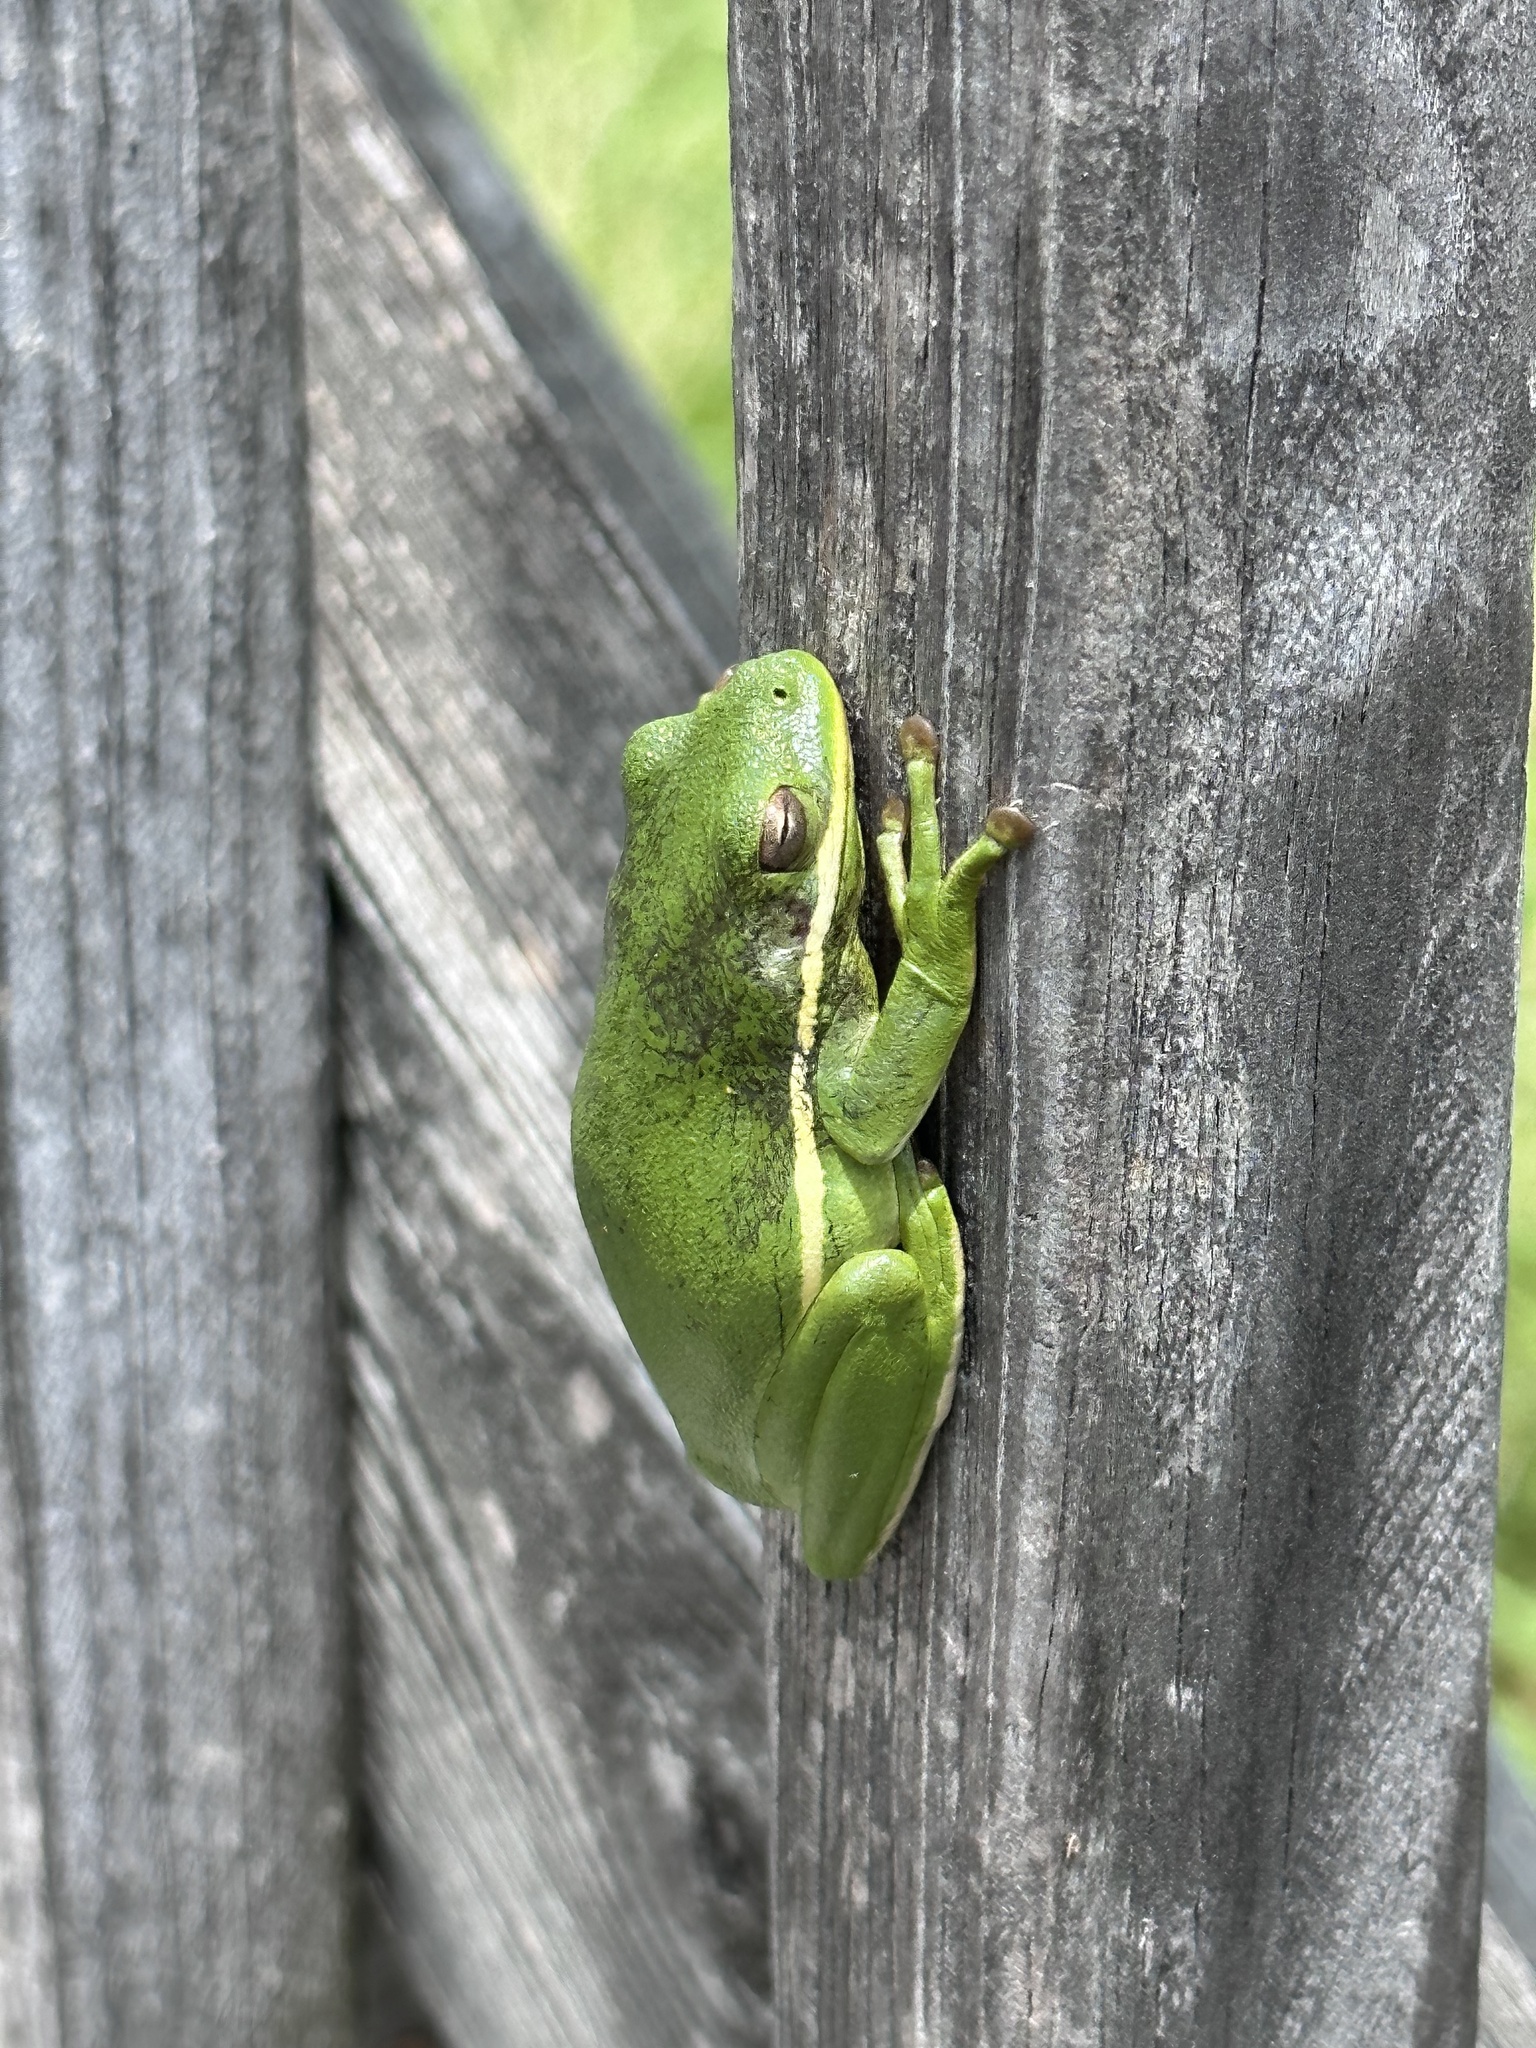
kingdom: Animalia
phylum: Chordata
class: Amphibia
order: Anura
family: Hylidae
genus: Dryophytes
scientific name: Dryophytes cinereus
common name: Green treefrog
